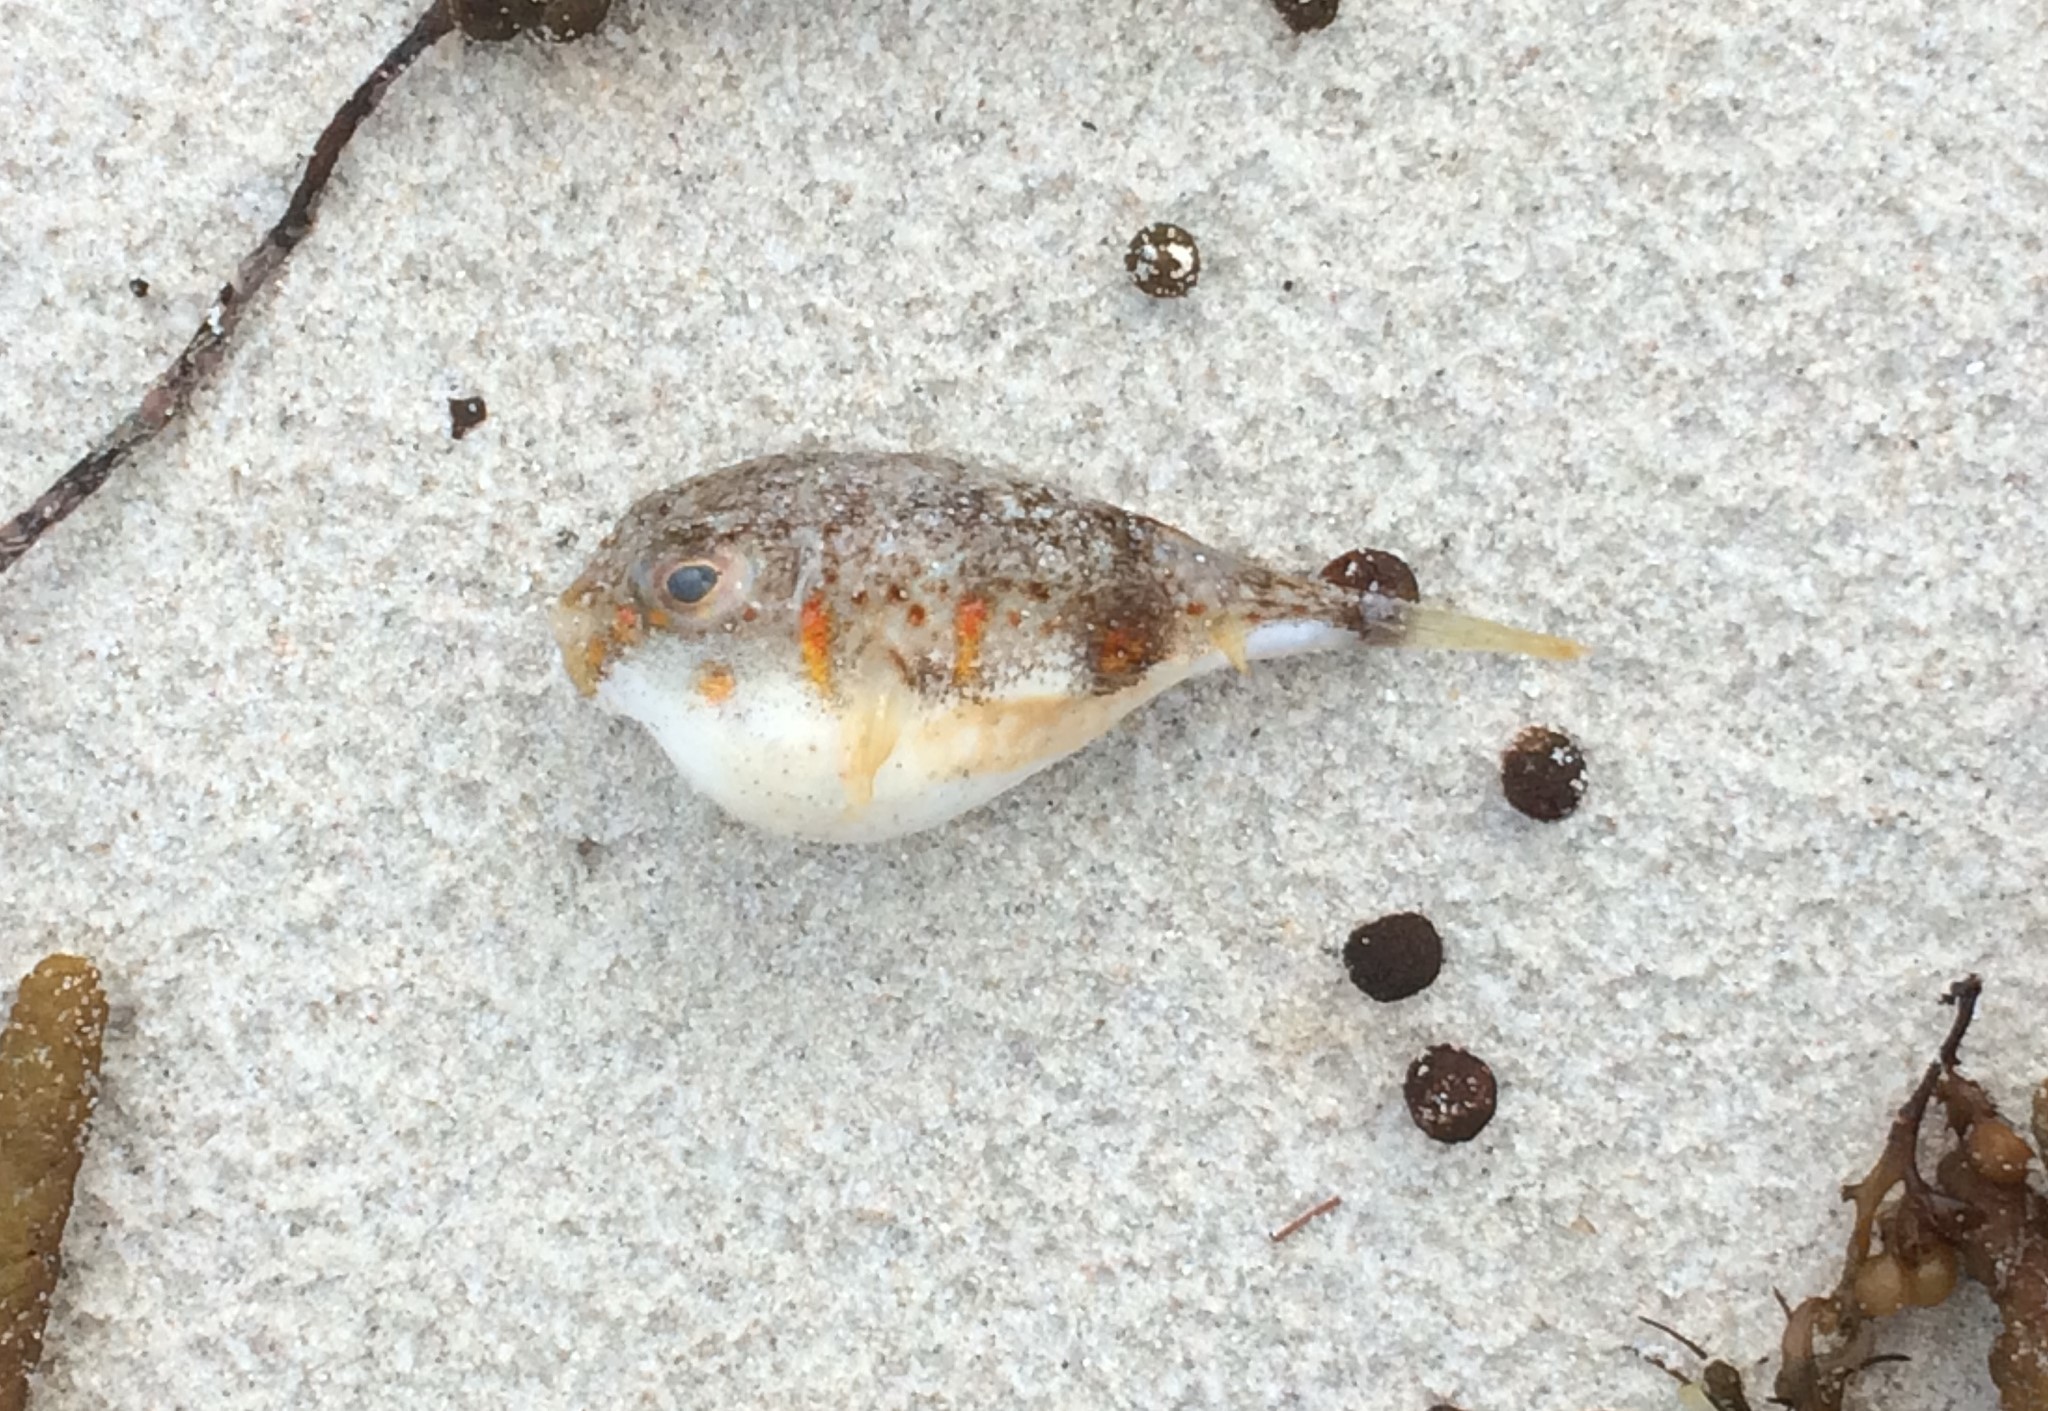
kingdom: Animalia
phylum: Chordata
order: Tetraodontiformes
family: Tetraodontidae
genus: Polyspina
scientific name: Polyspina piosae
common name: Orange-barred pufferfish
